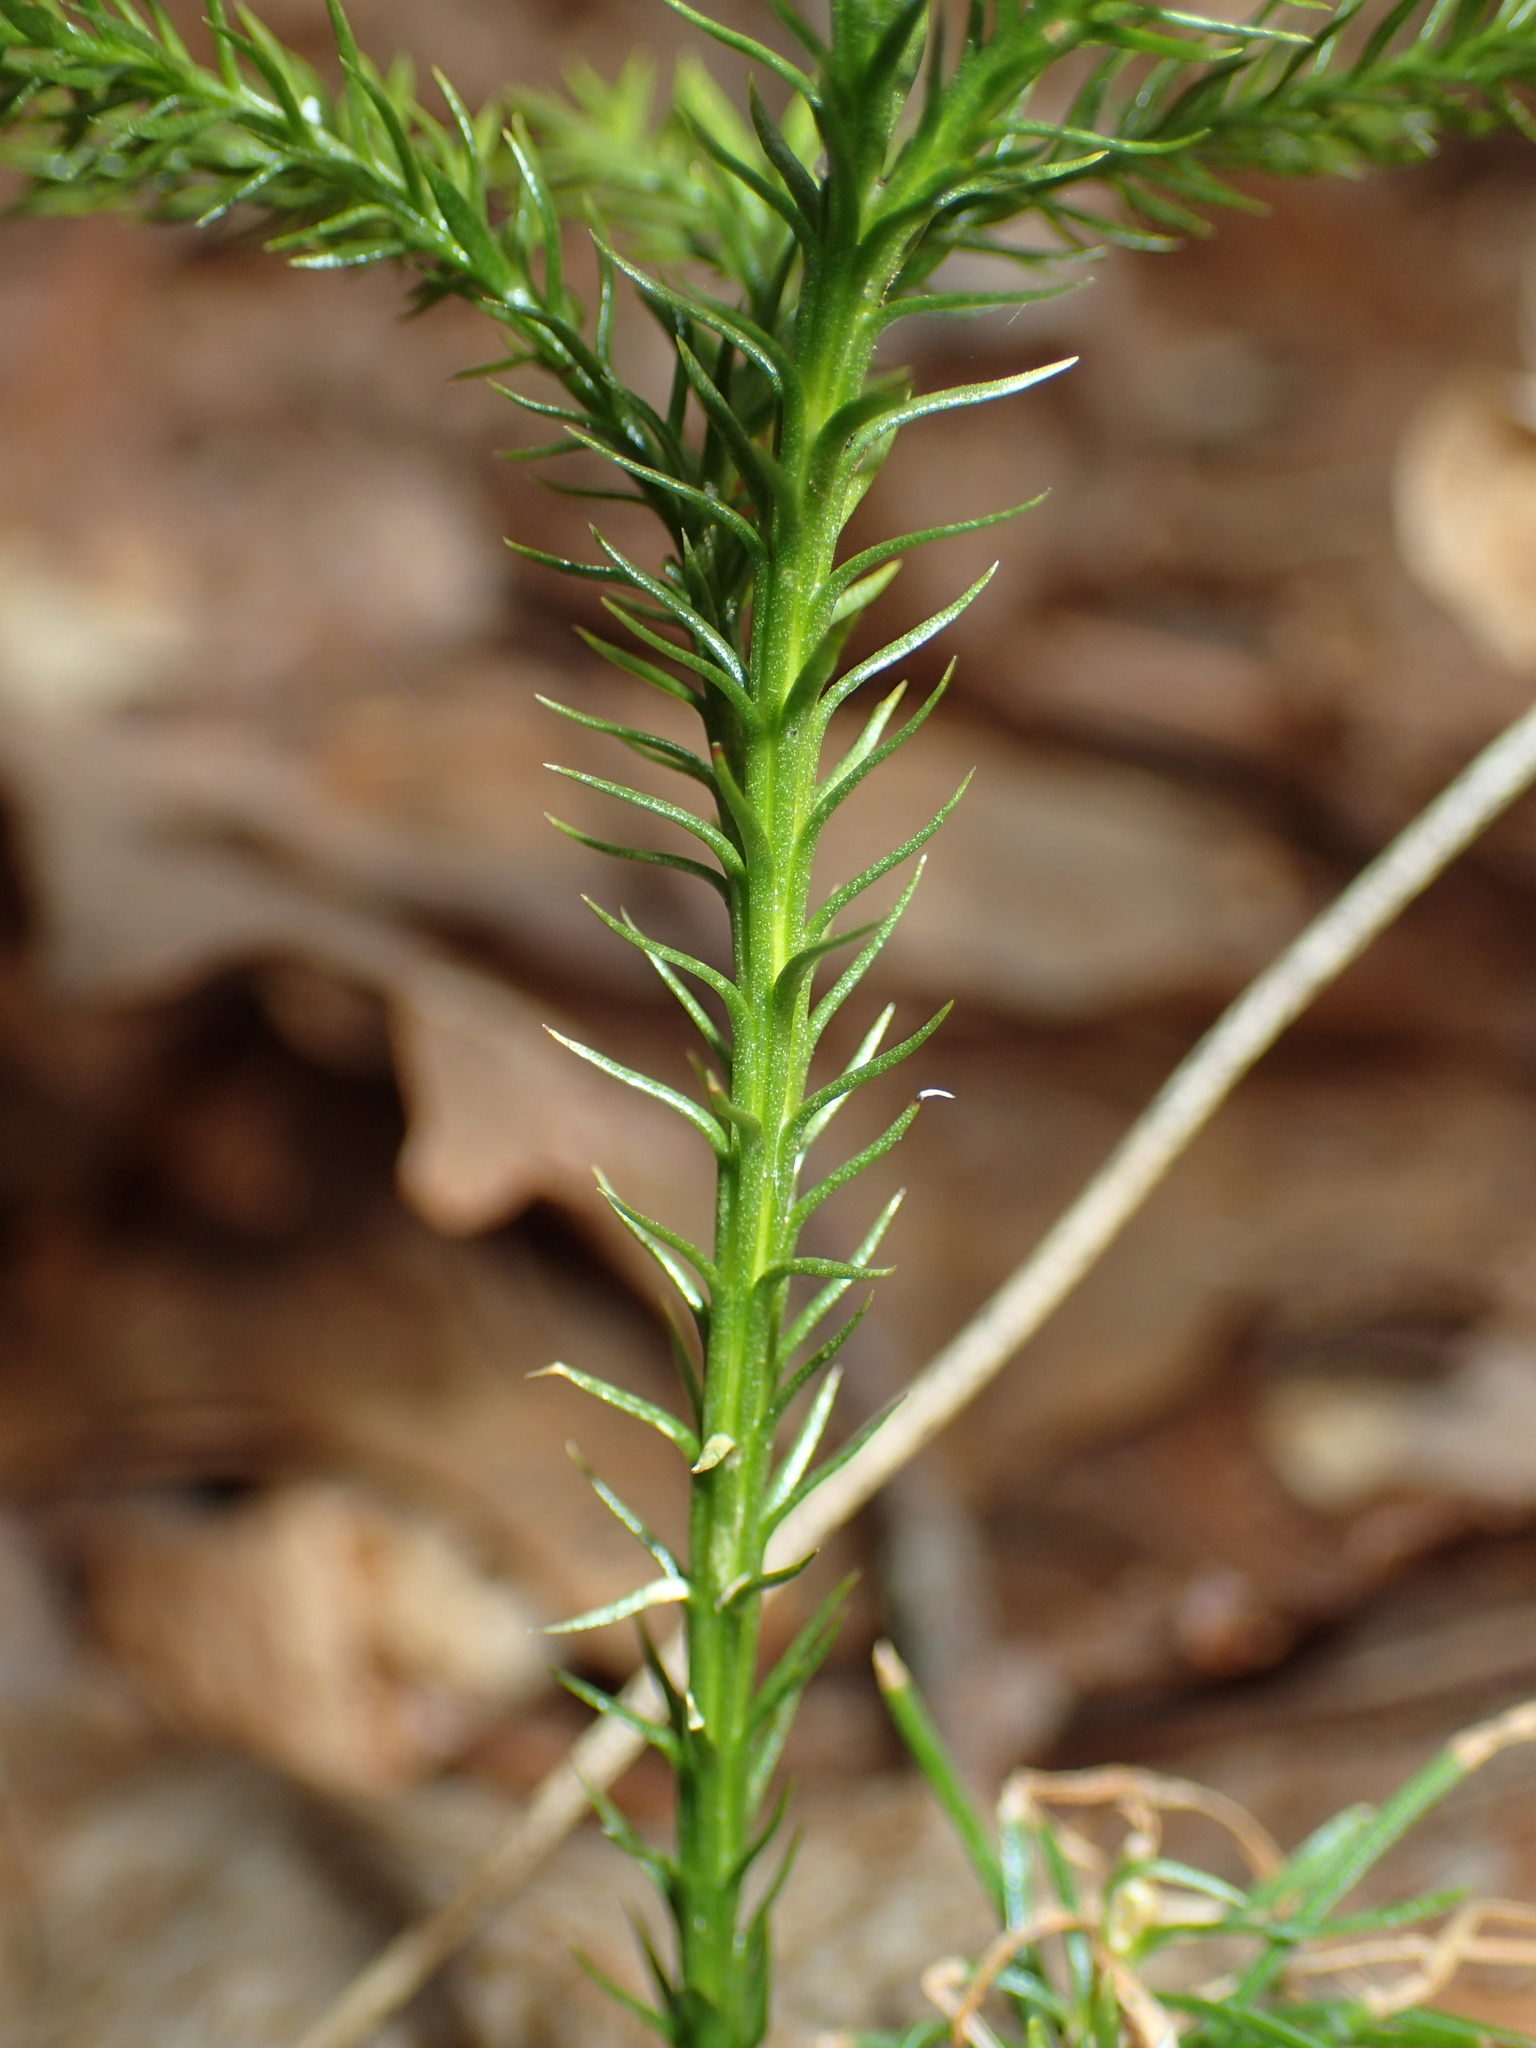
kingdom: Plantae
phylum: Tracheophyta
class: Lycopodiopsida
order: Lycopodiales
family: Lycopodiaceae
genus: Dendrolycopodium
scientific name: Dendrolycopodium obscurum
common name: Common ground-pine
